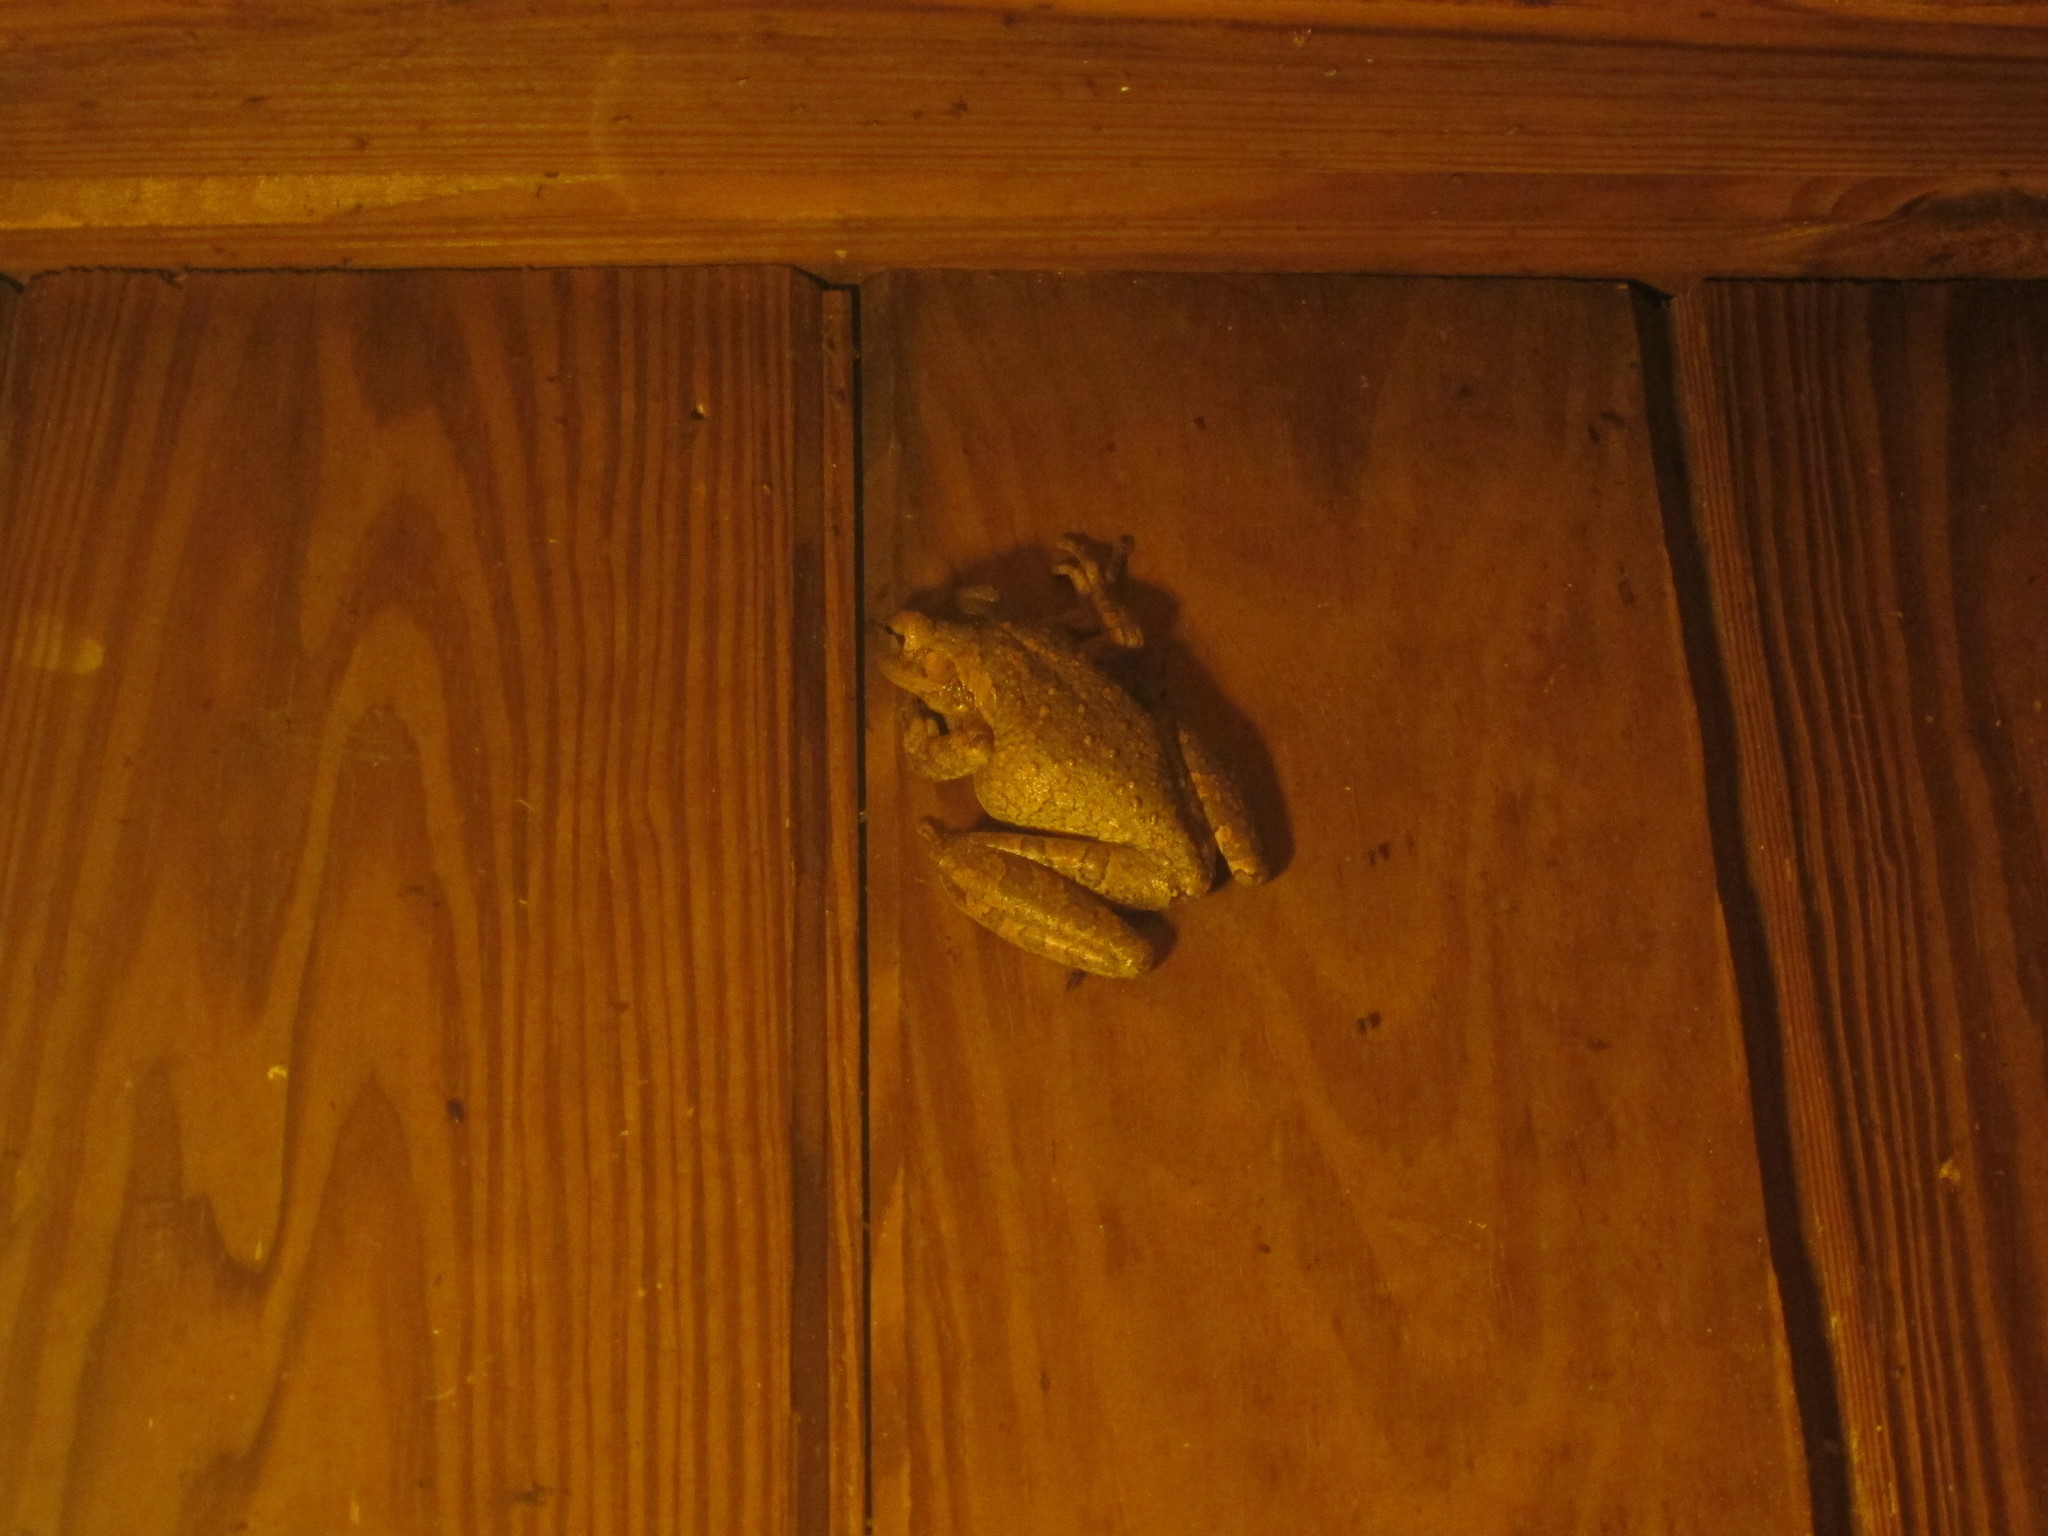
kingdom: Animalia
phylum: Chordata
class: Amphibia
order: Anura
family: Hylidae
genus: Osteopilus
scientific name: Osteopilus septentrionalis
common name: Cuban treefrog
